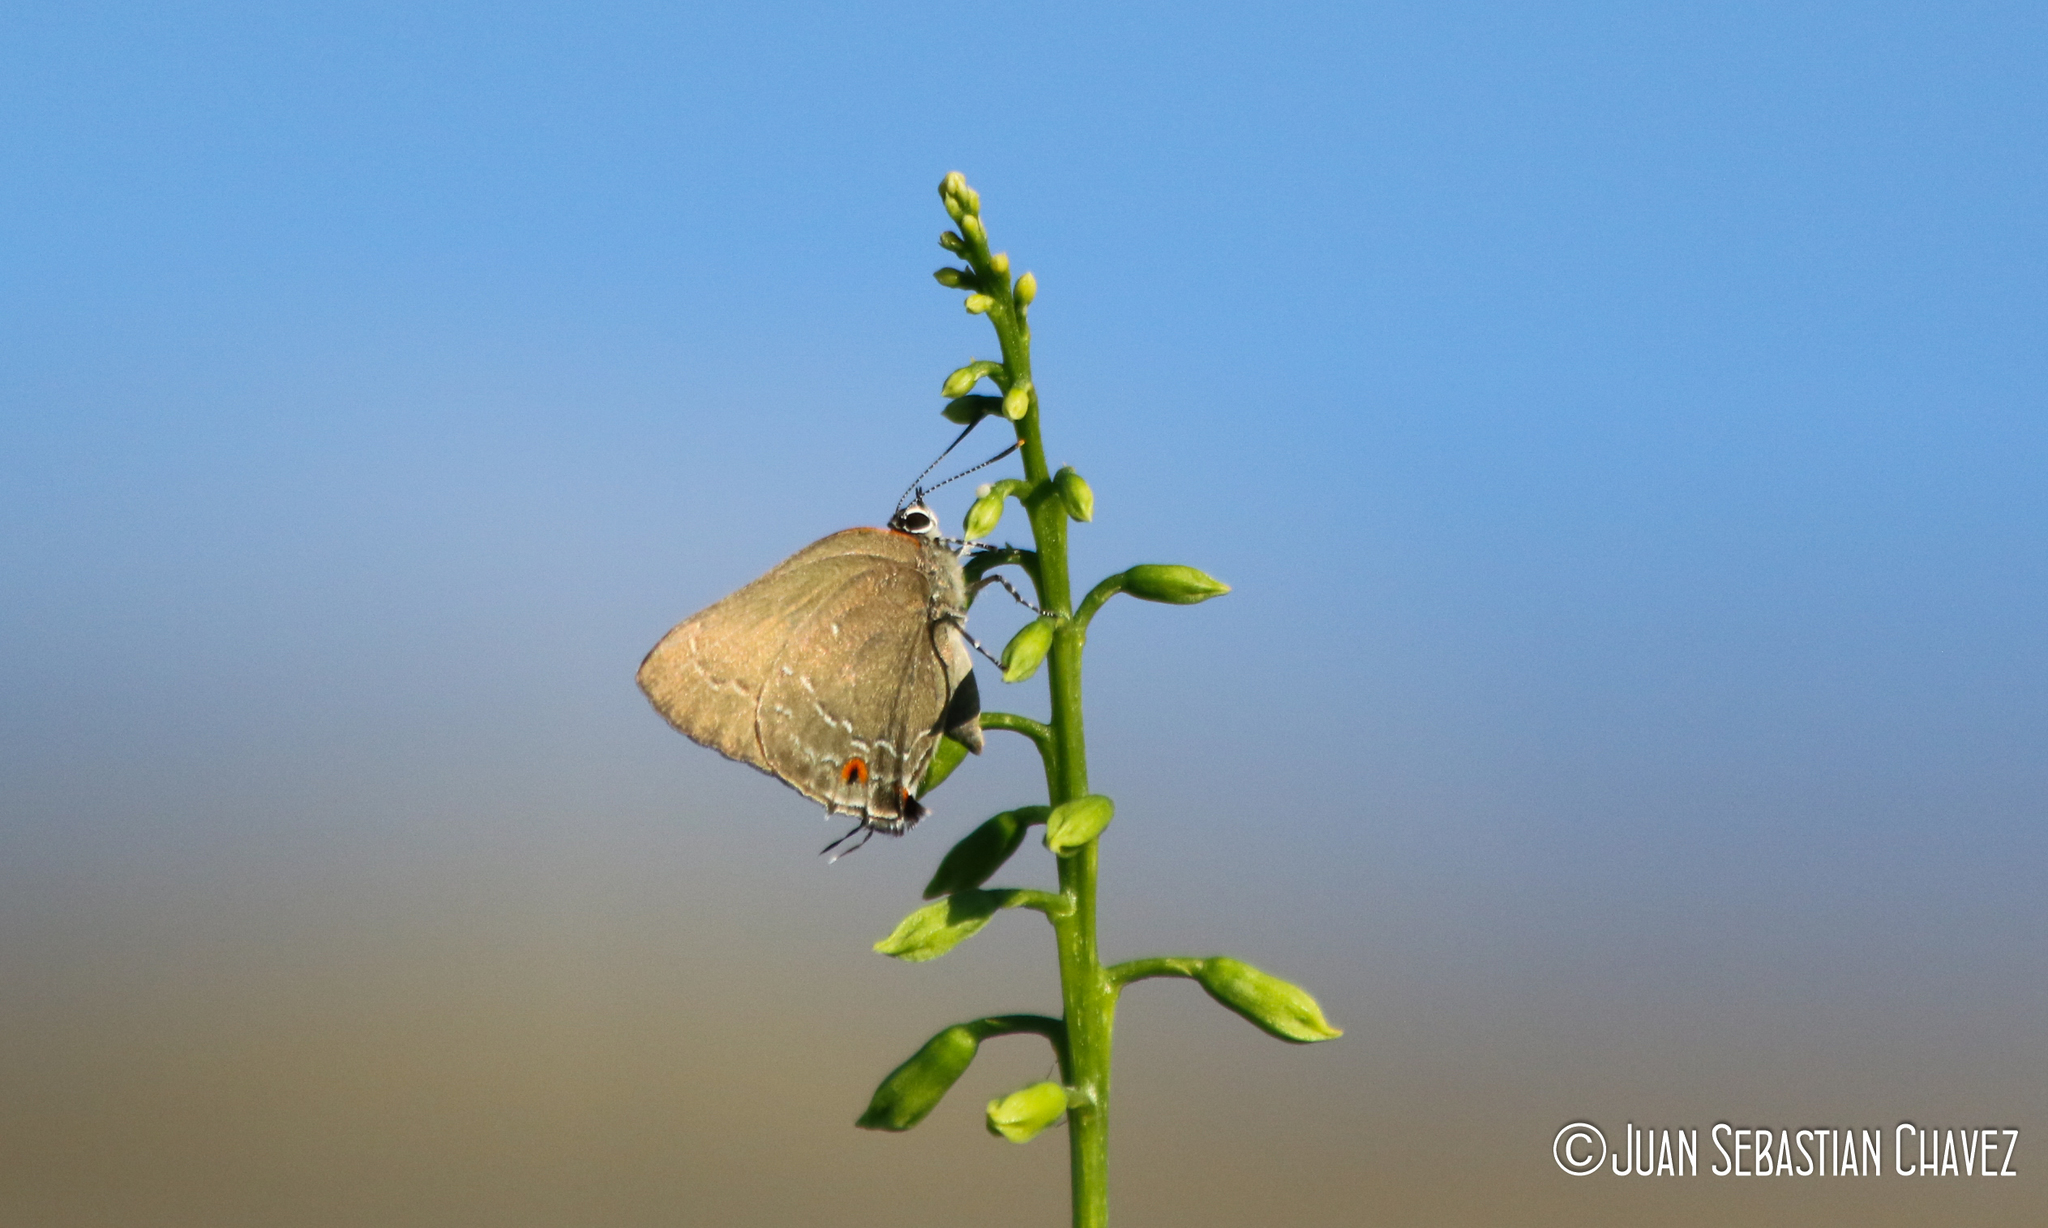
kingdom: Animalia
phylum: Arthropoda
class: Insecta
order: Lepidoptera
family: Lycaenidae
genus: Michaelus
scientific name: Michaelus ira
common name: Shadowed hairstreak
